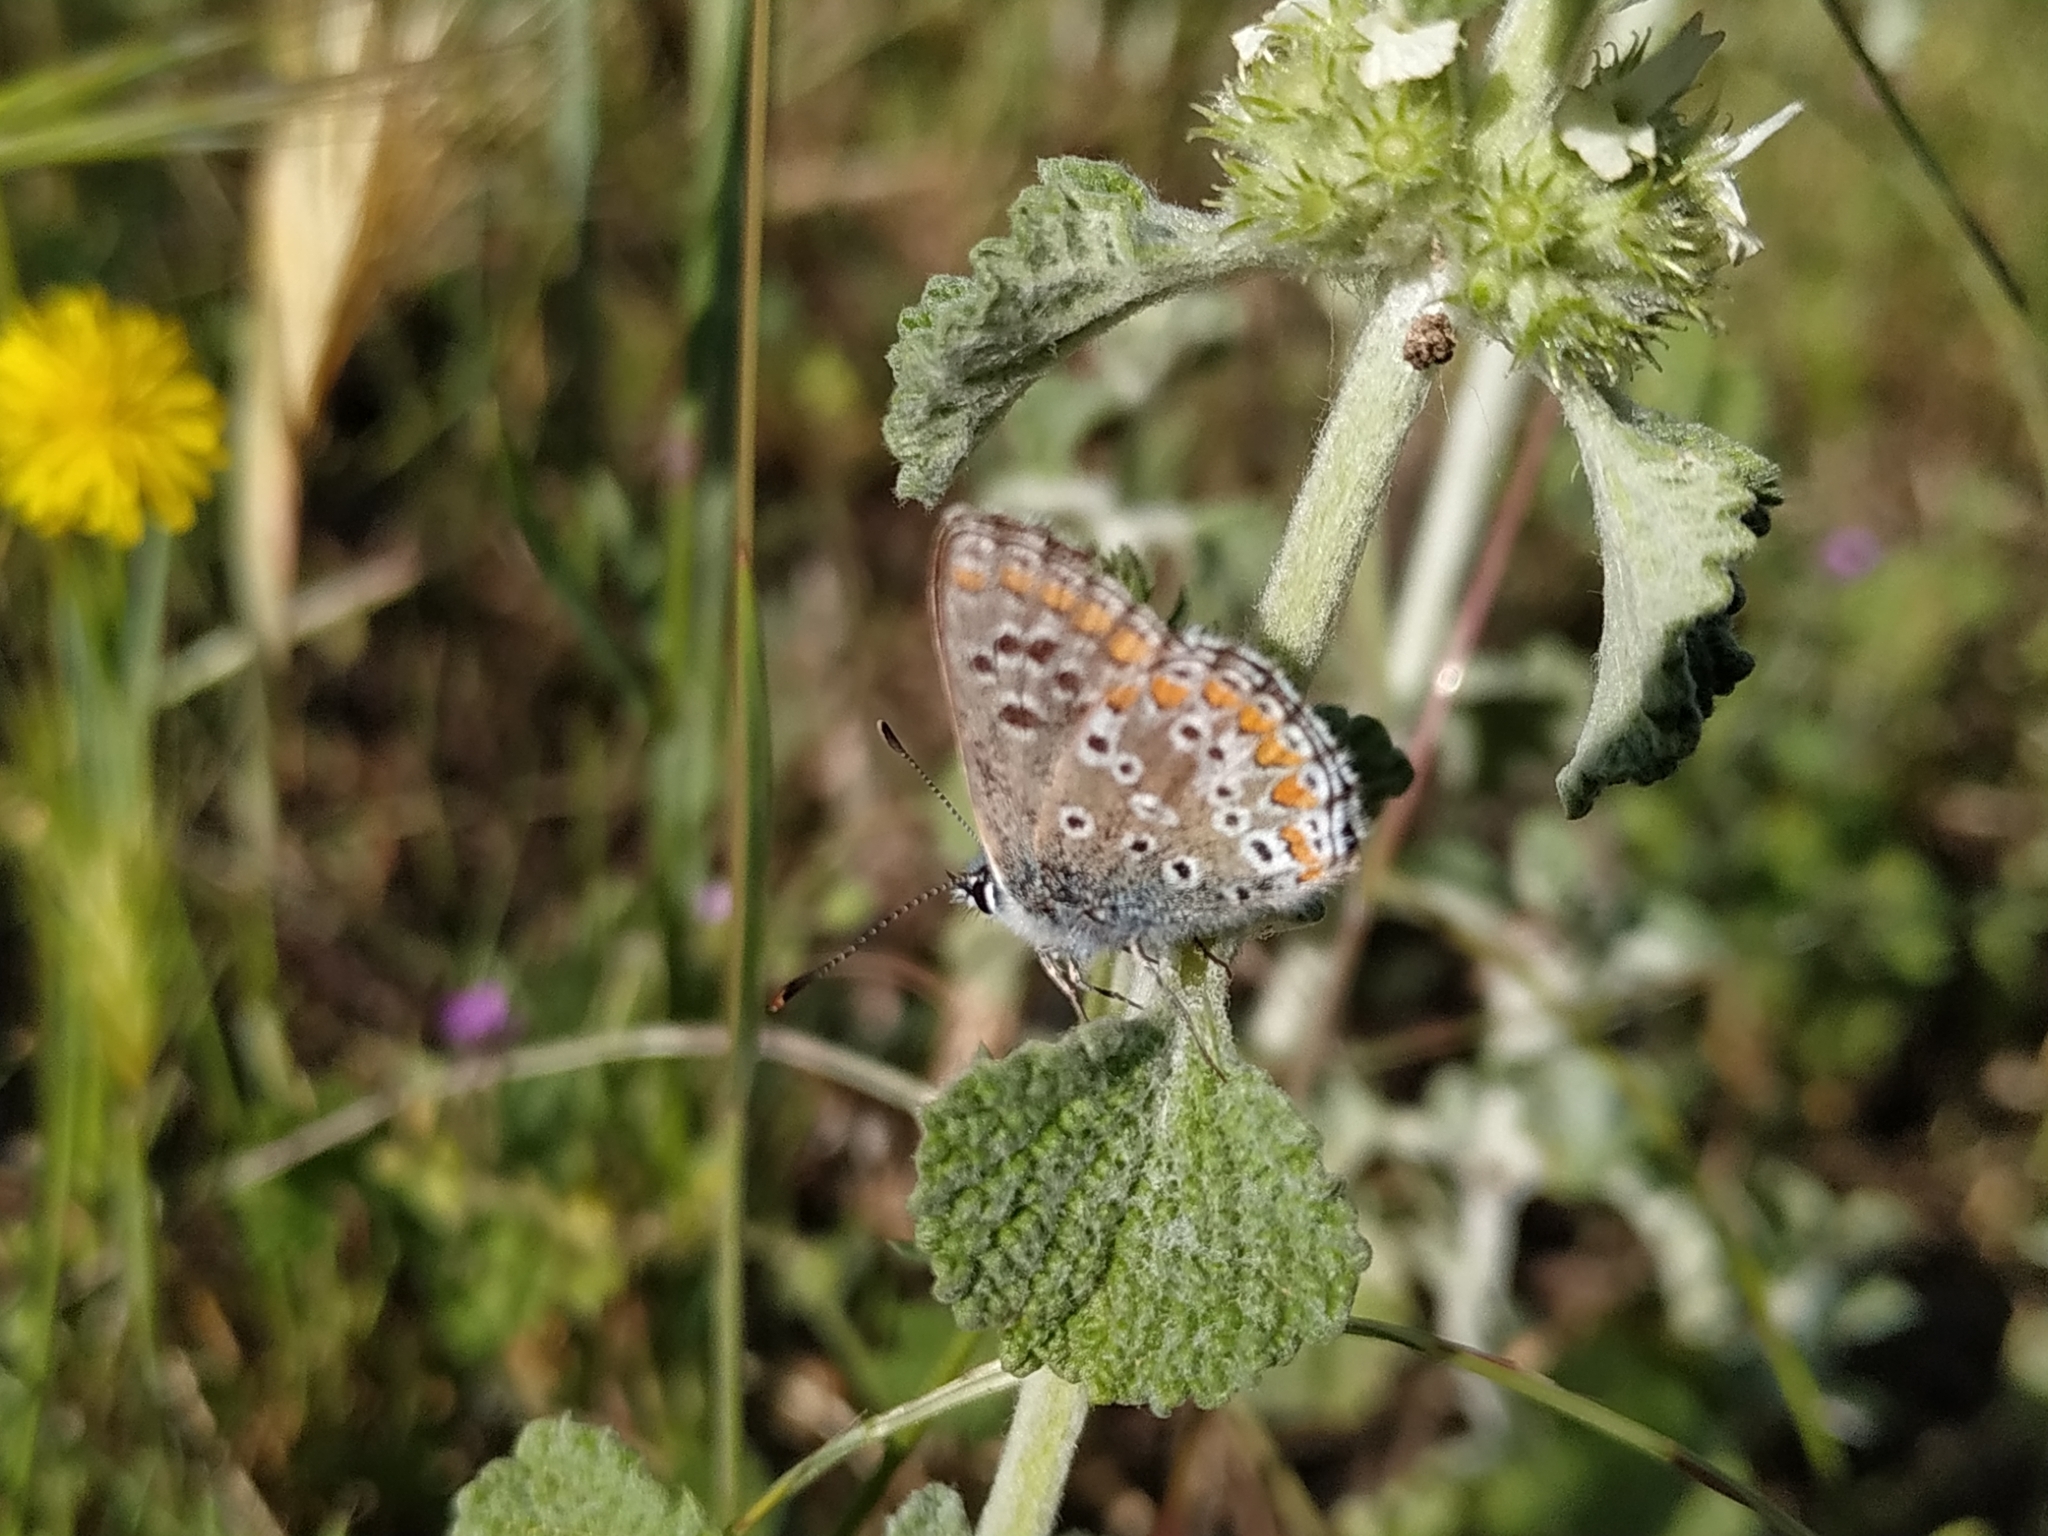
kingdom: Animalia
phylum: Arthropoda
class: Insecta
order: Lepidoptera
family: Lycaenidae
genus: Aricia
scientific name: Aricia cramera
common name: Eschscholtz´s brown  argus
